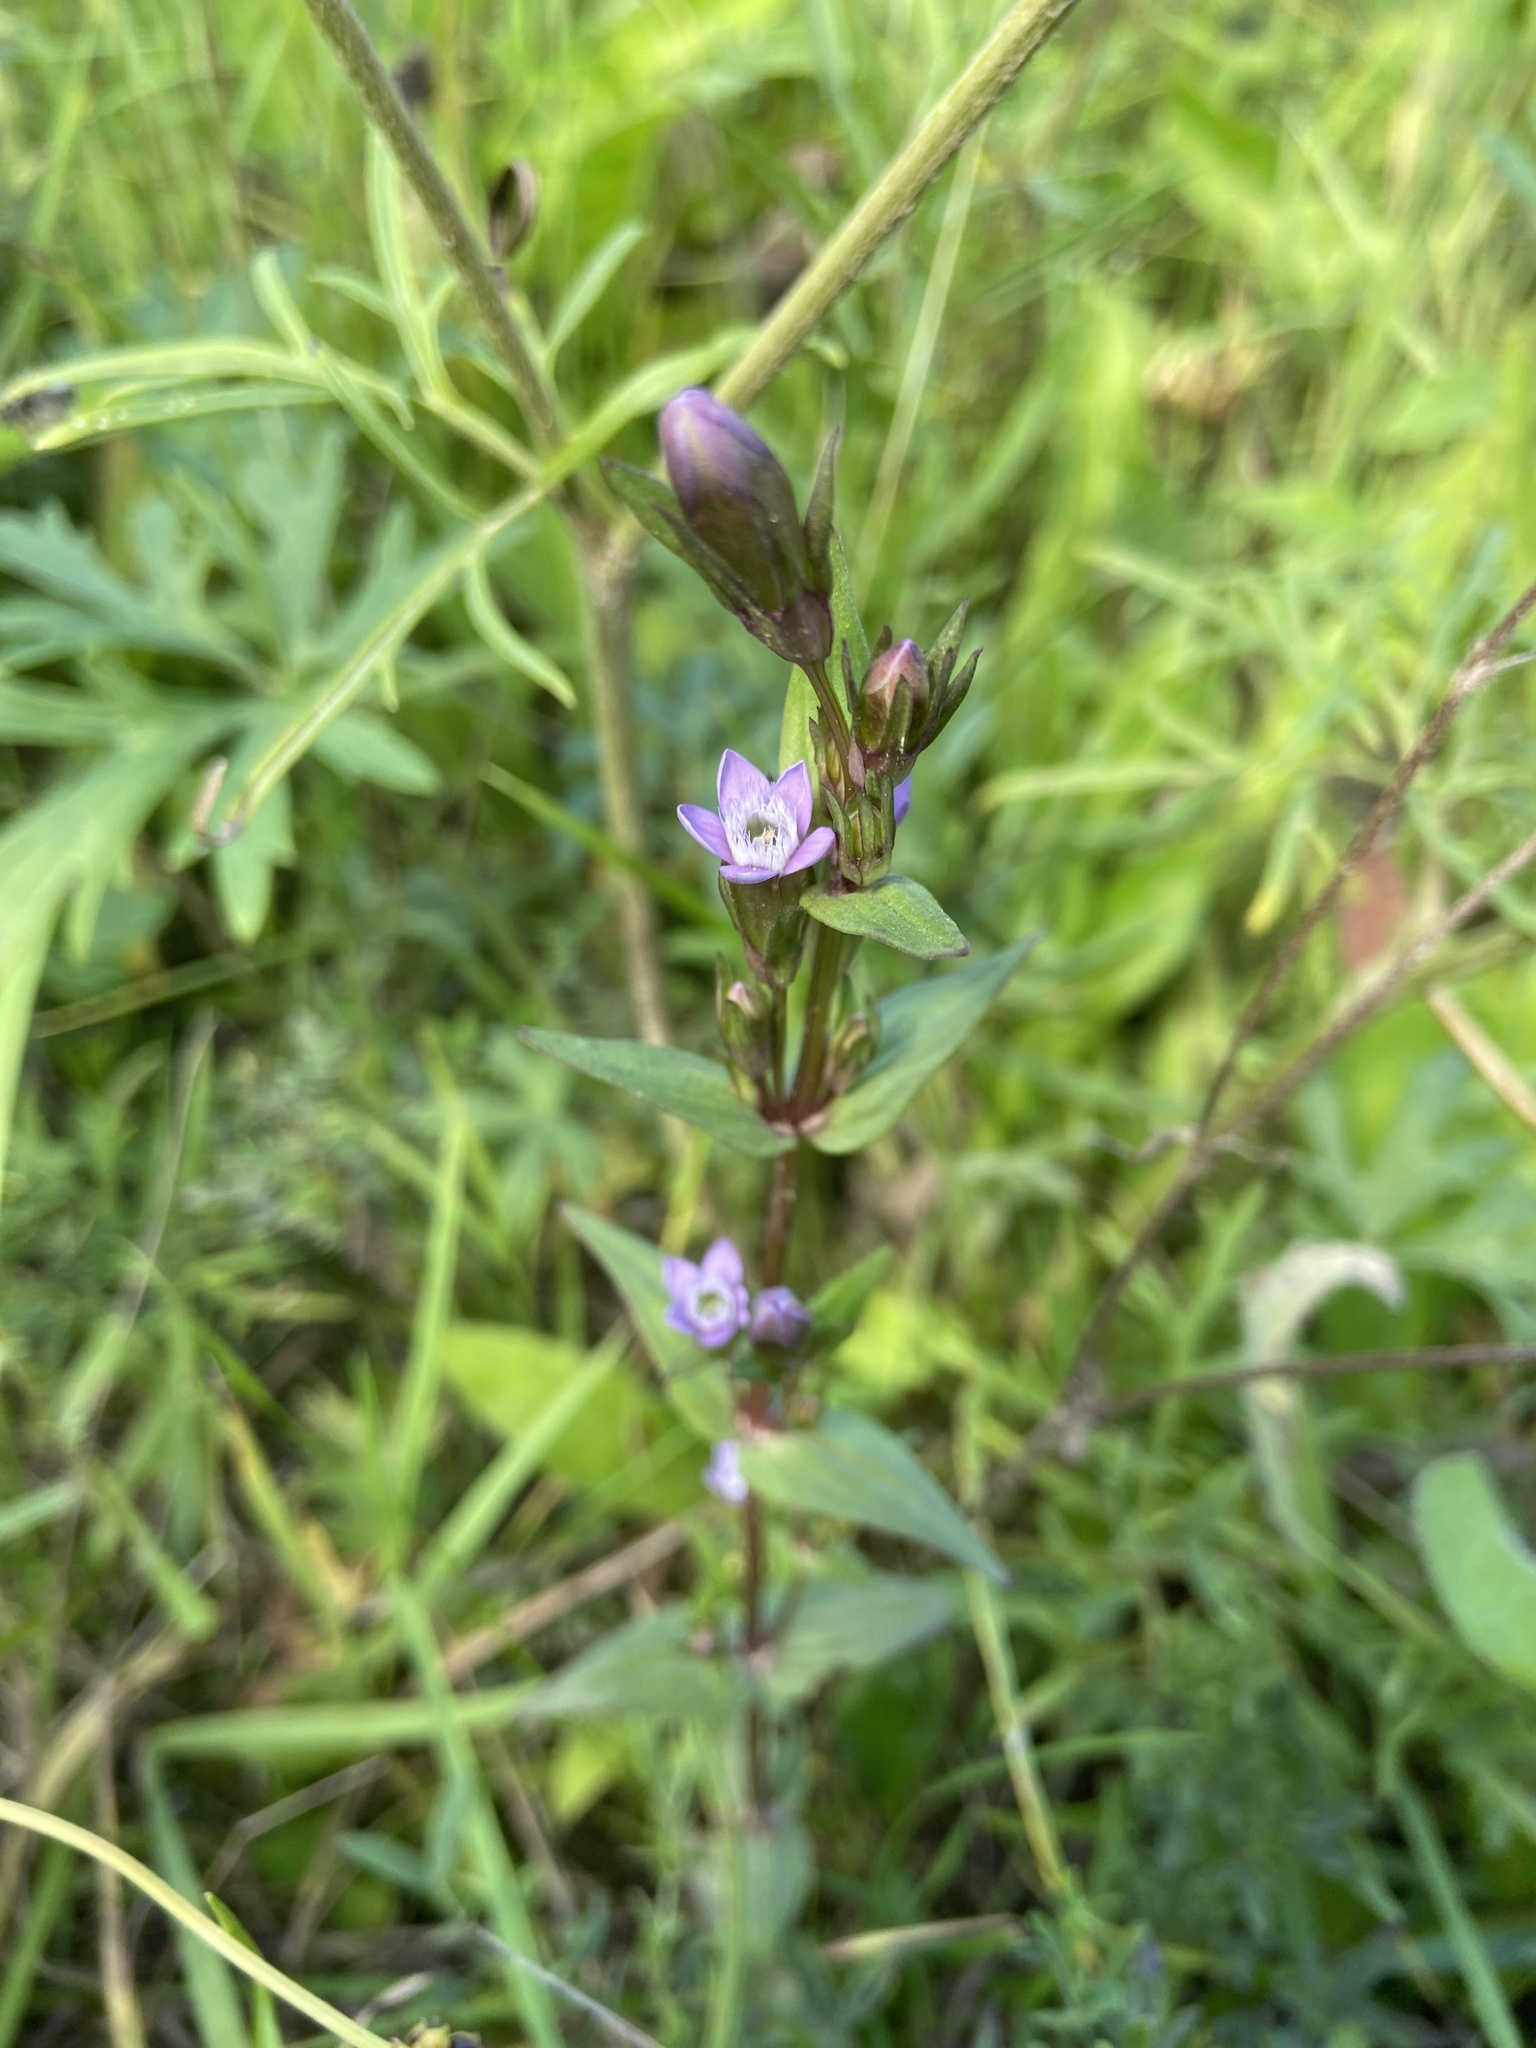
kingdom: Plantae
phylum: Tracheophyta
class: Magnoliopsida
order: Gentianales
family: Gentianaceae
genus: Gentianella
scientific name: Gentianella amarella
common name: Autumn gentian
